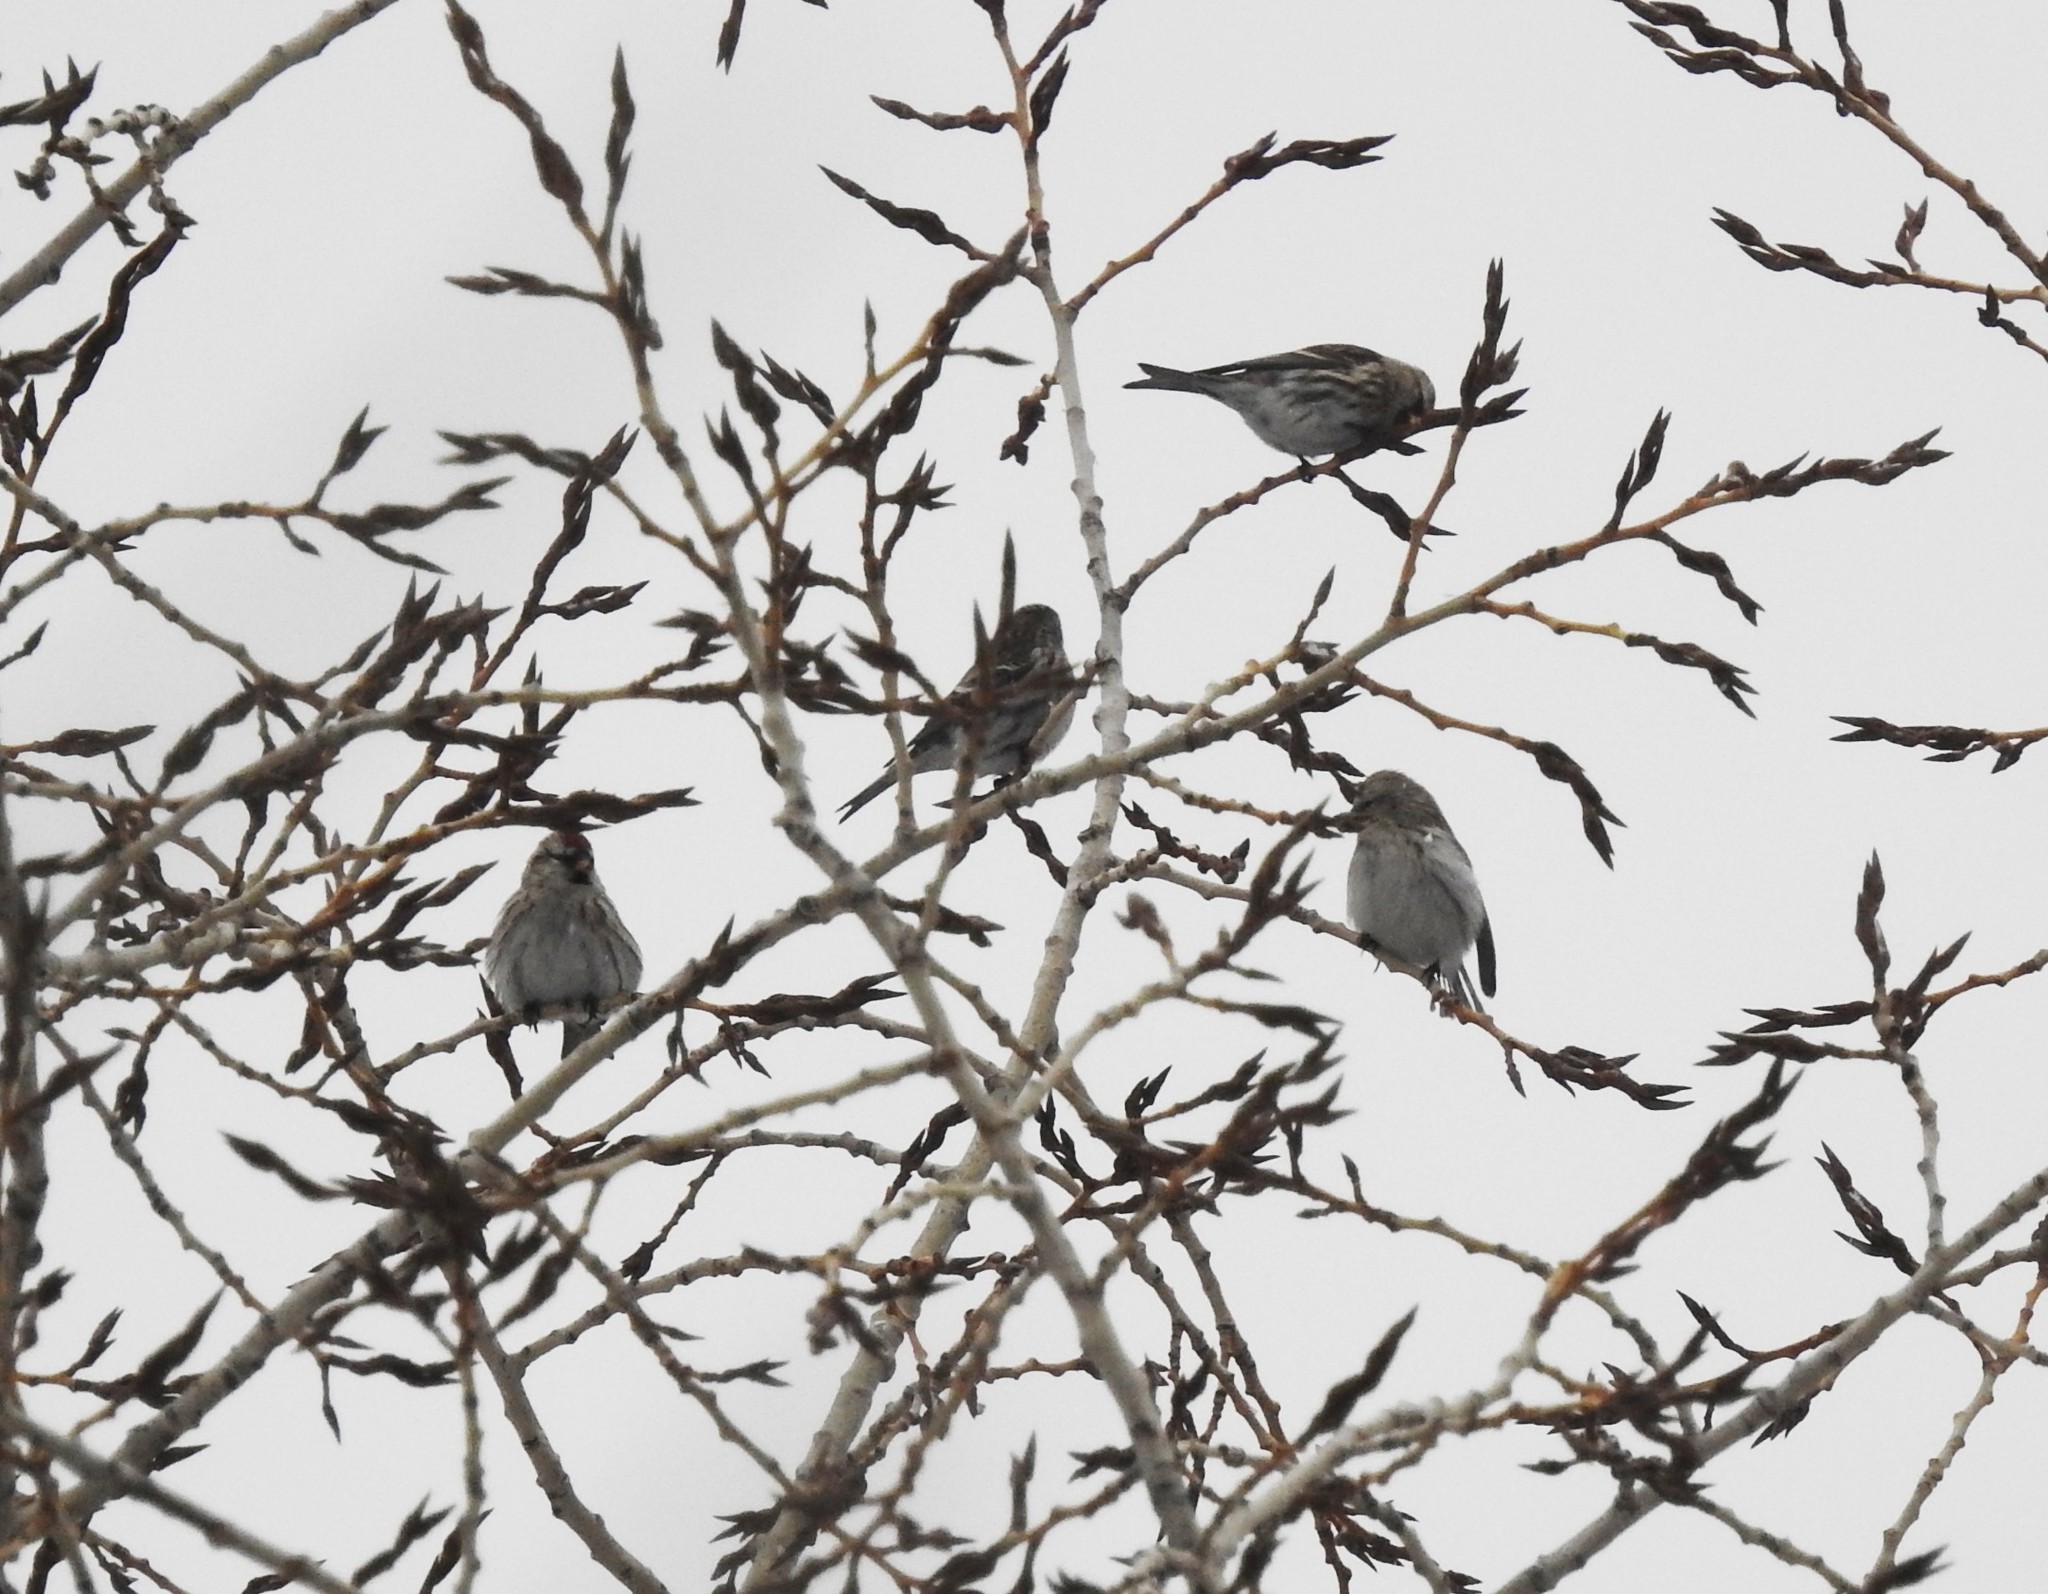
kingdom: Animalia
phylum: Chordata
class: Aves
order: Passeriformes
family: Fringillidae
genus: Acanthis
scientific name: Acanthis flammea
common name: Common redpoll
